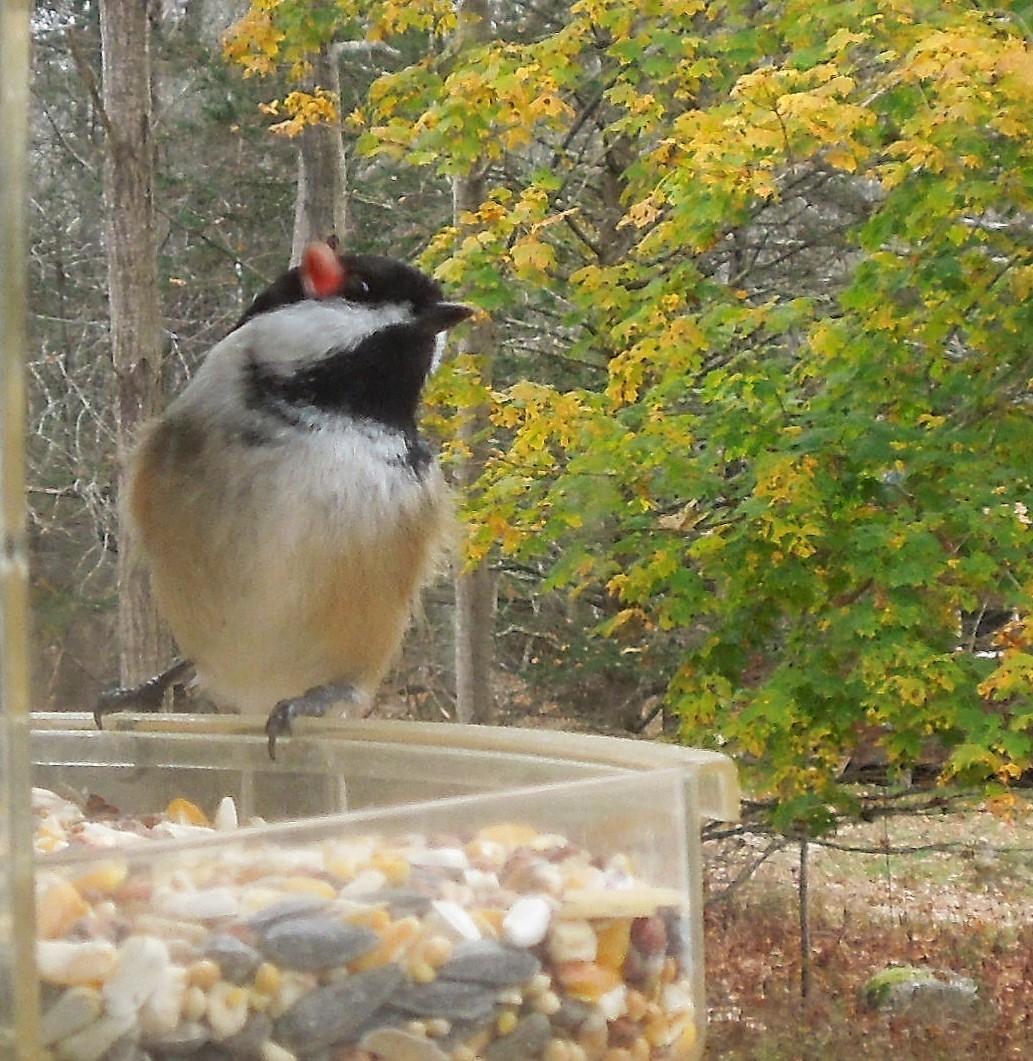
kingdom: Animalia
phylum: Chordata
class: Aves
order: Passeriformes
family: Paridae
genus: Poecile
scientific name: Poecile atricapillus
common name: Black-capped chickadee
